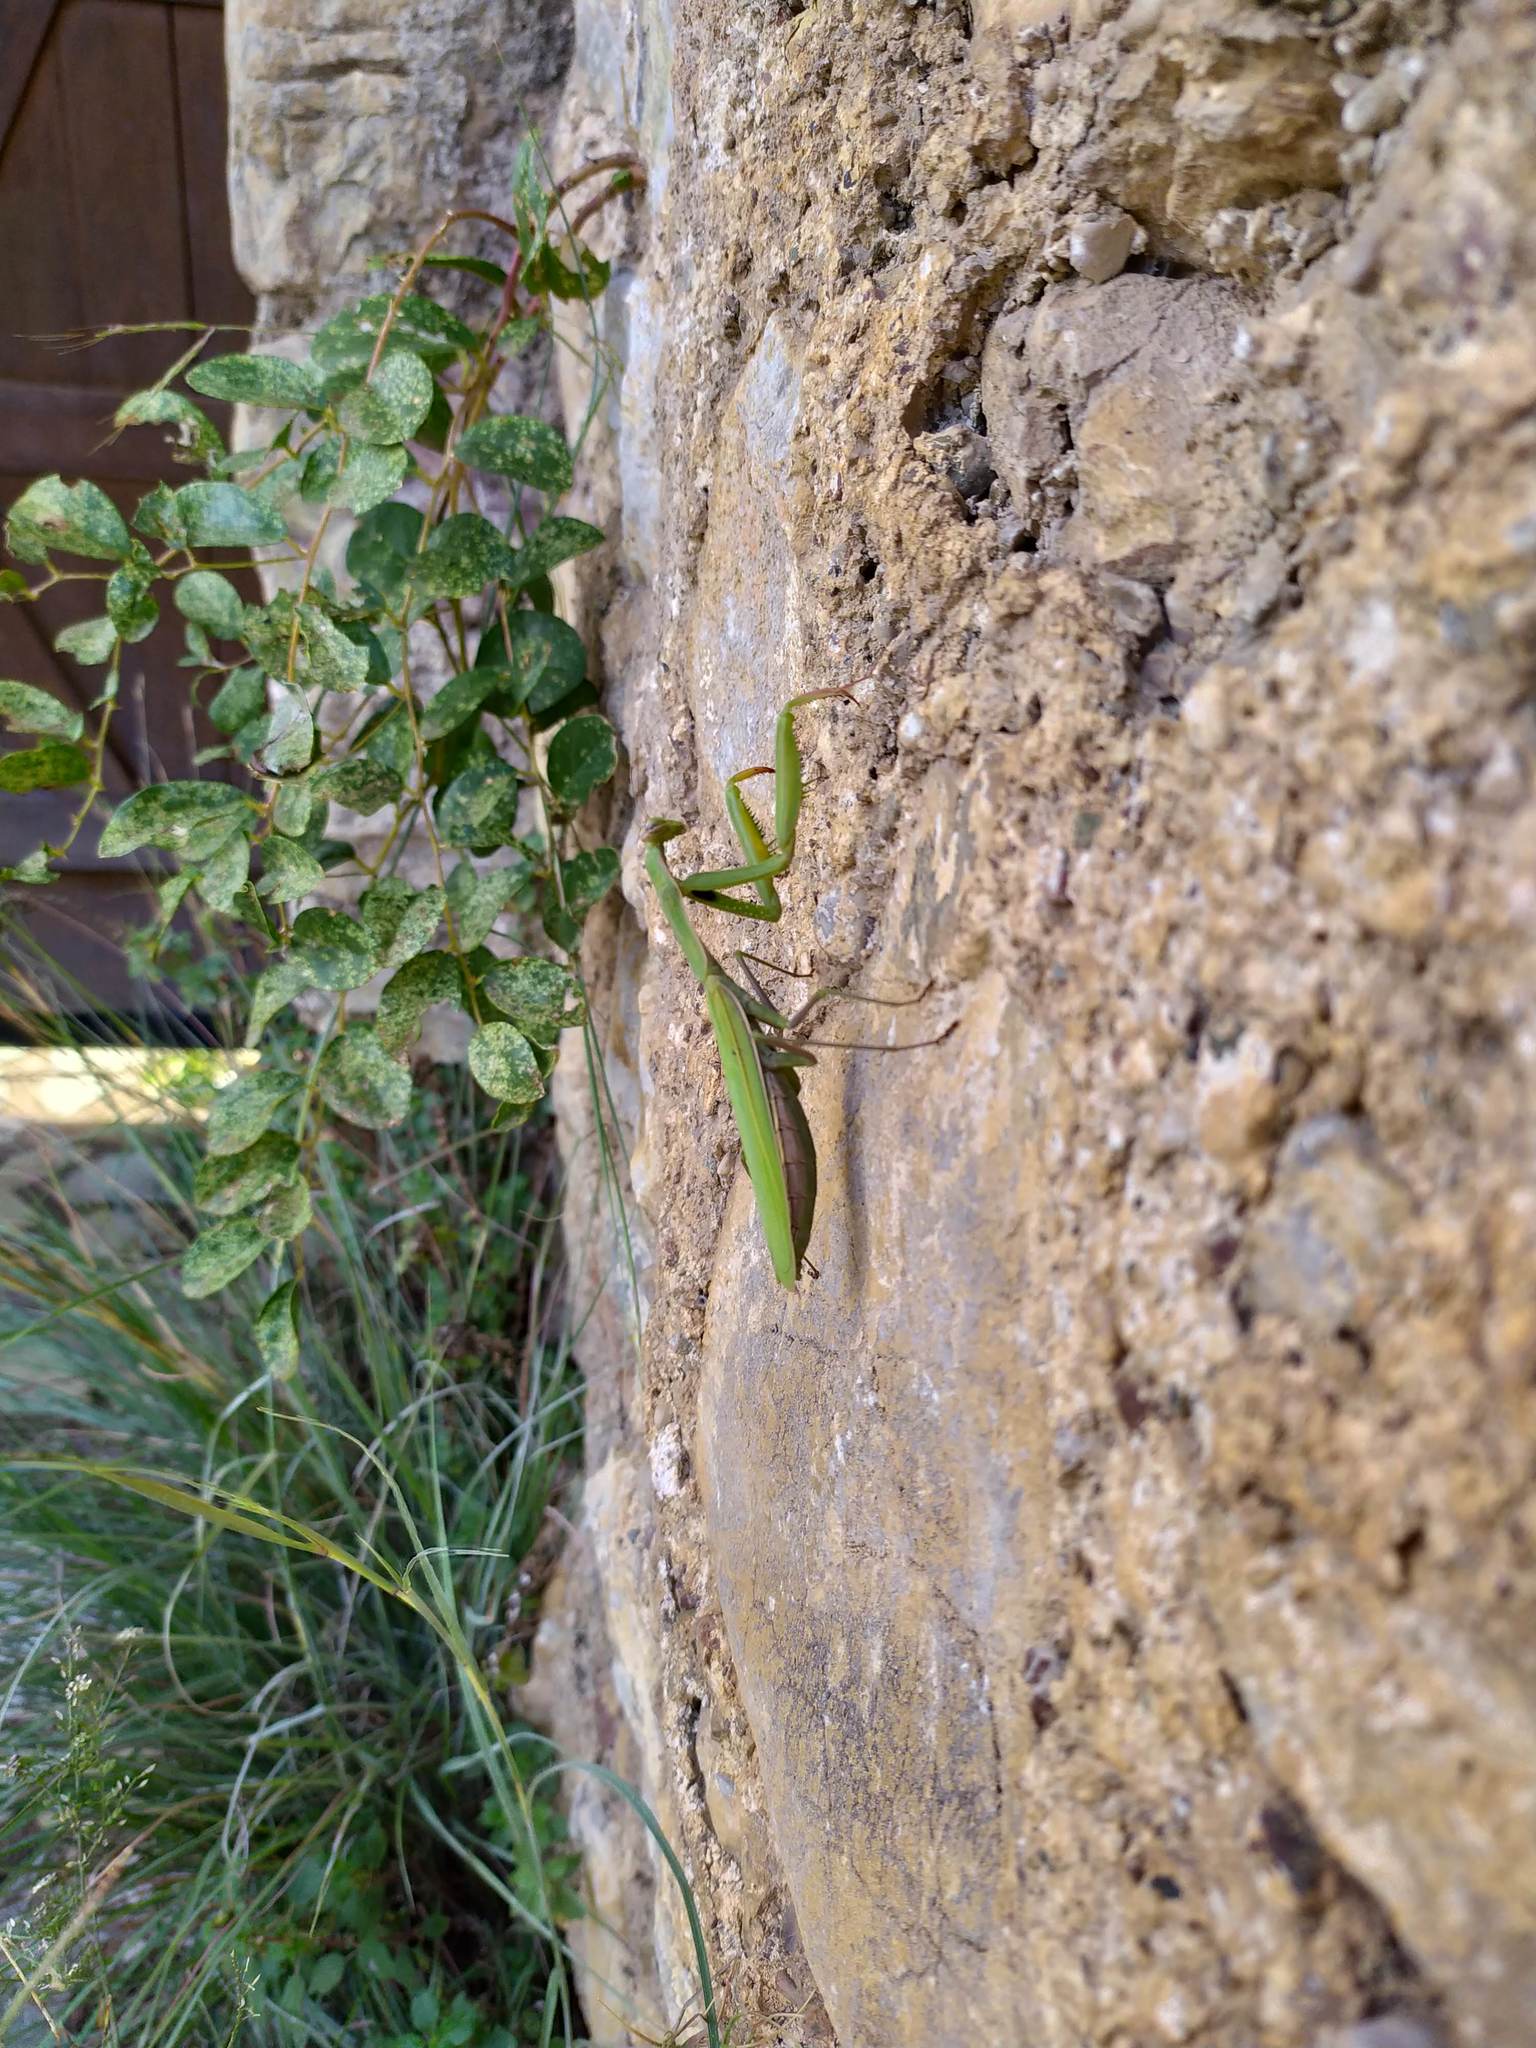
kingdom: Animalia
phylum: Arthropoda
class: Insecta
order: Mantodea
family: Mantidae
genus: Mantis
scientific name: Mantis religiosa
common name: Praying mantis
